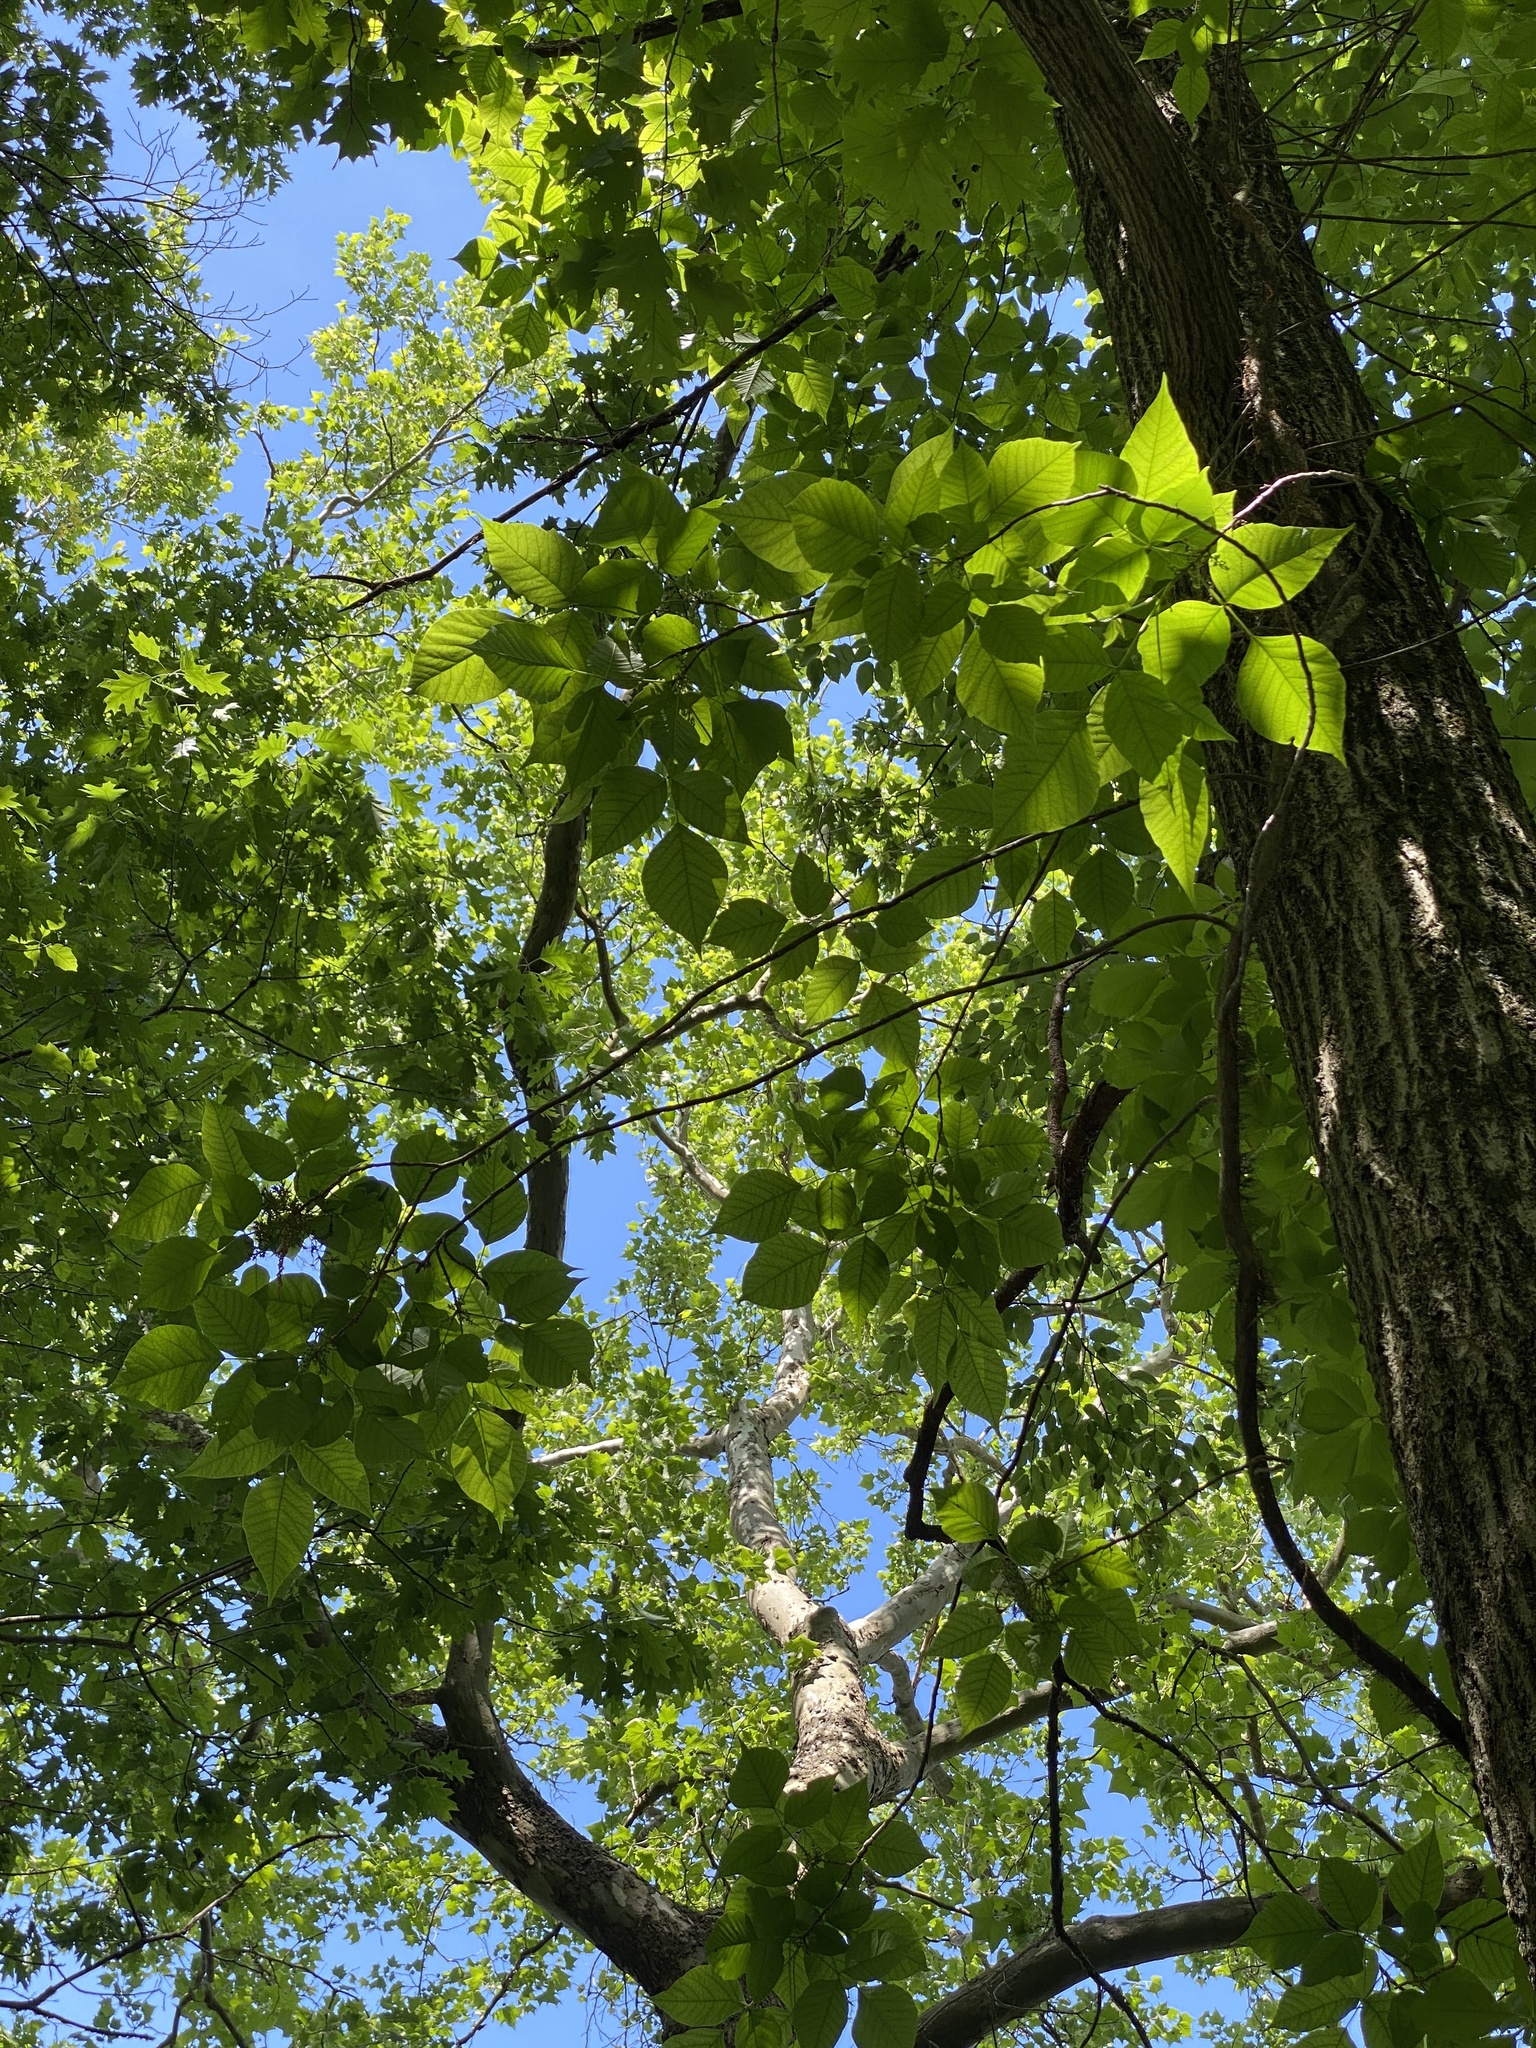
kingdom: Plantae
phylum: Tracheophyta
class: Magnoliopsida
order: Sapindales
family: Anacardiaceae
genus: Toxicodendron
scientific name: Toxicodendron radicans
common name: Poison ivy
